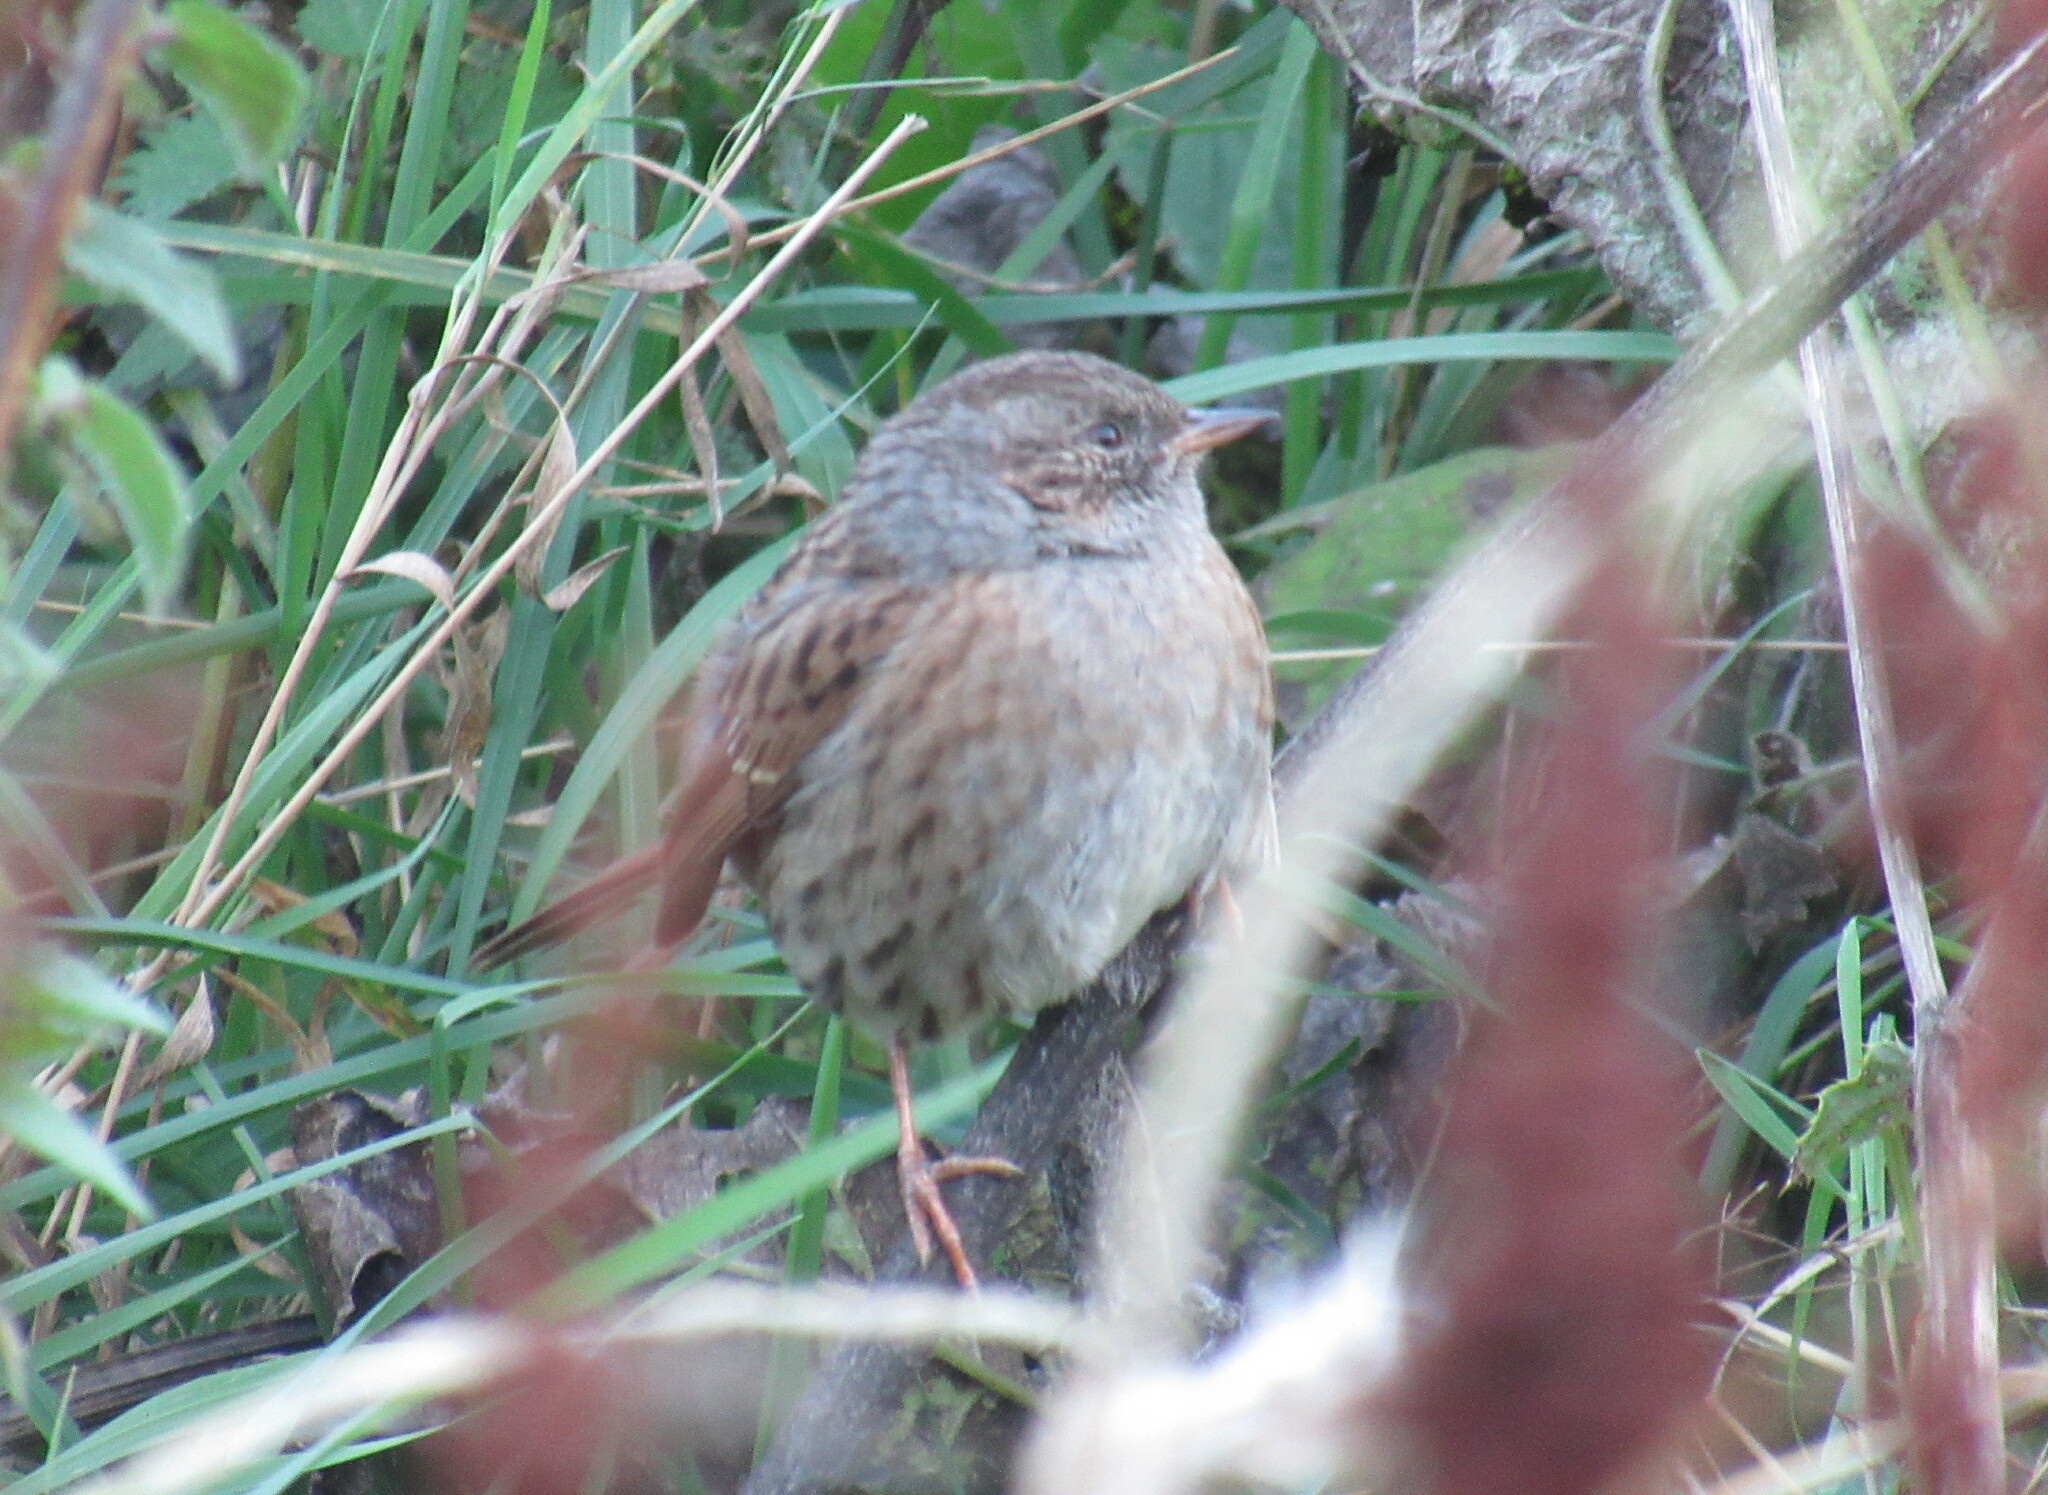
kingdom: Animalia
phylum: Chordata
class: Aves
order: Passeriformes
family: Prunellidae
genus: Prunella
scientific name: Prunella modularis
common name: Dunnock
